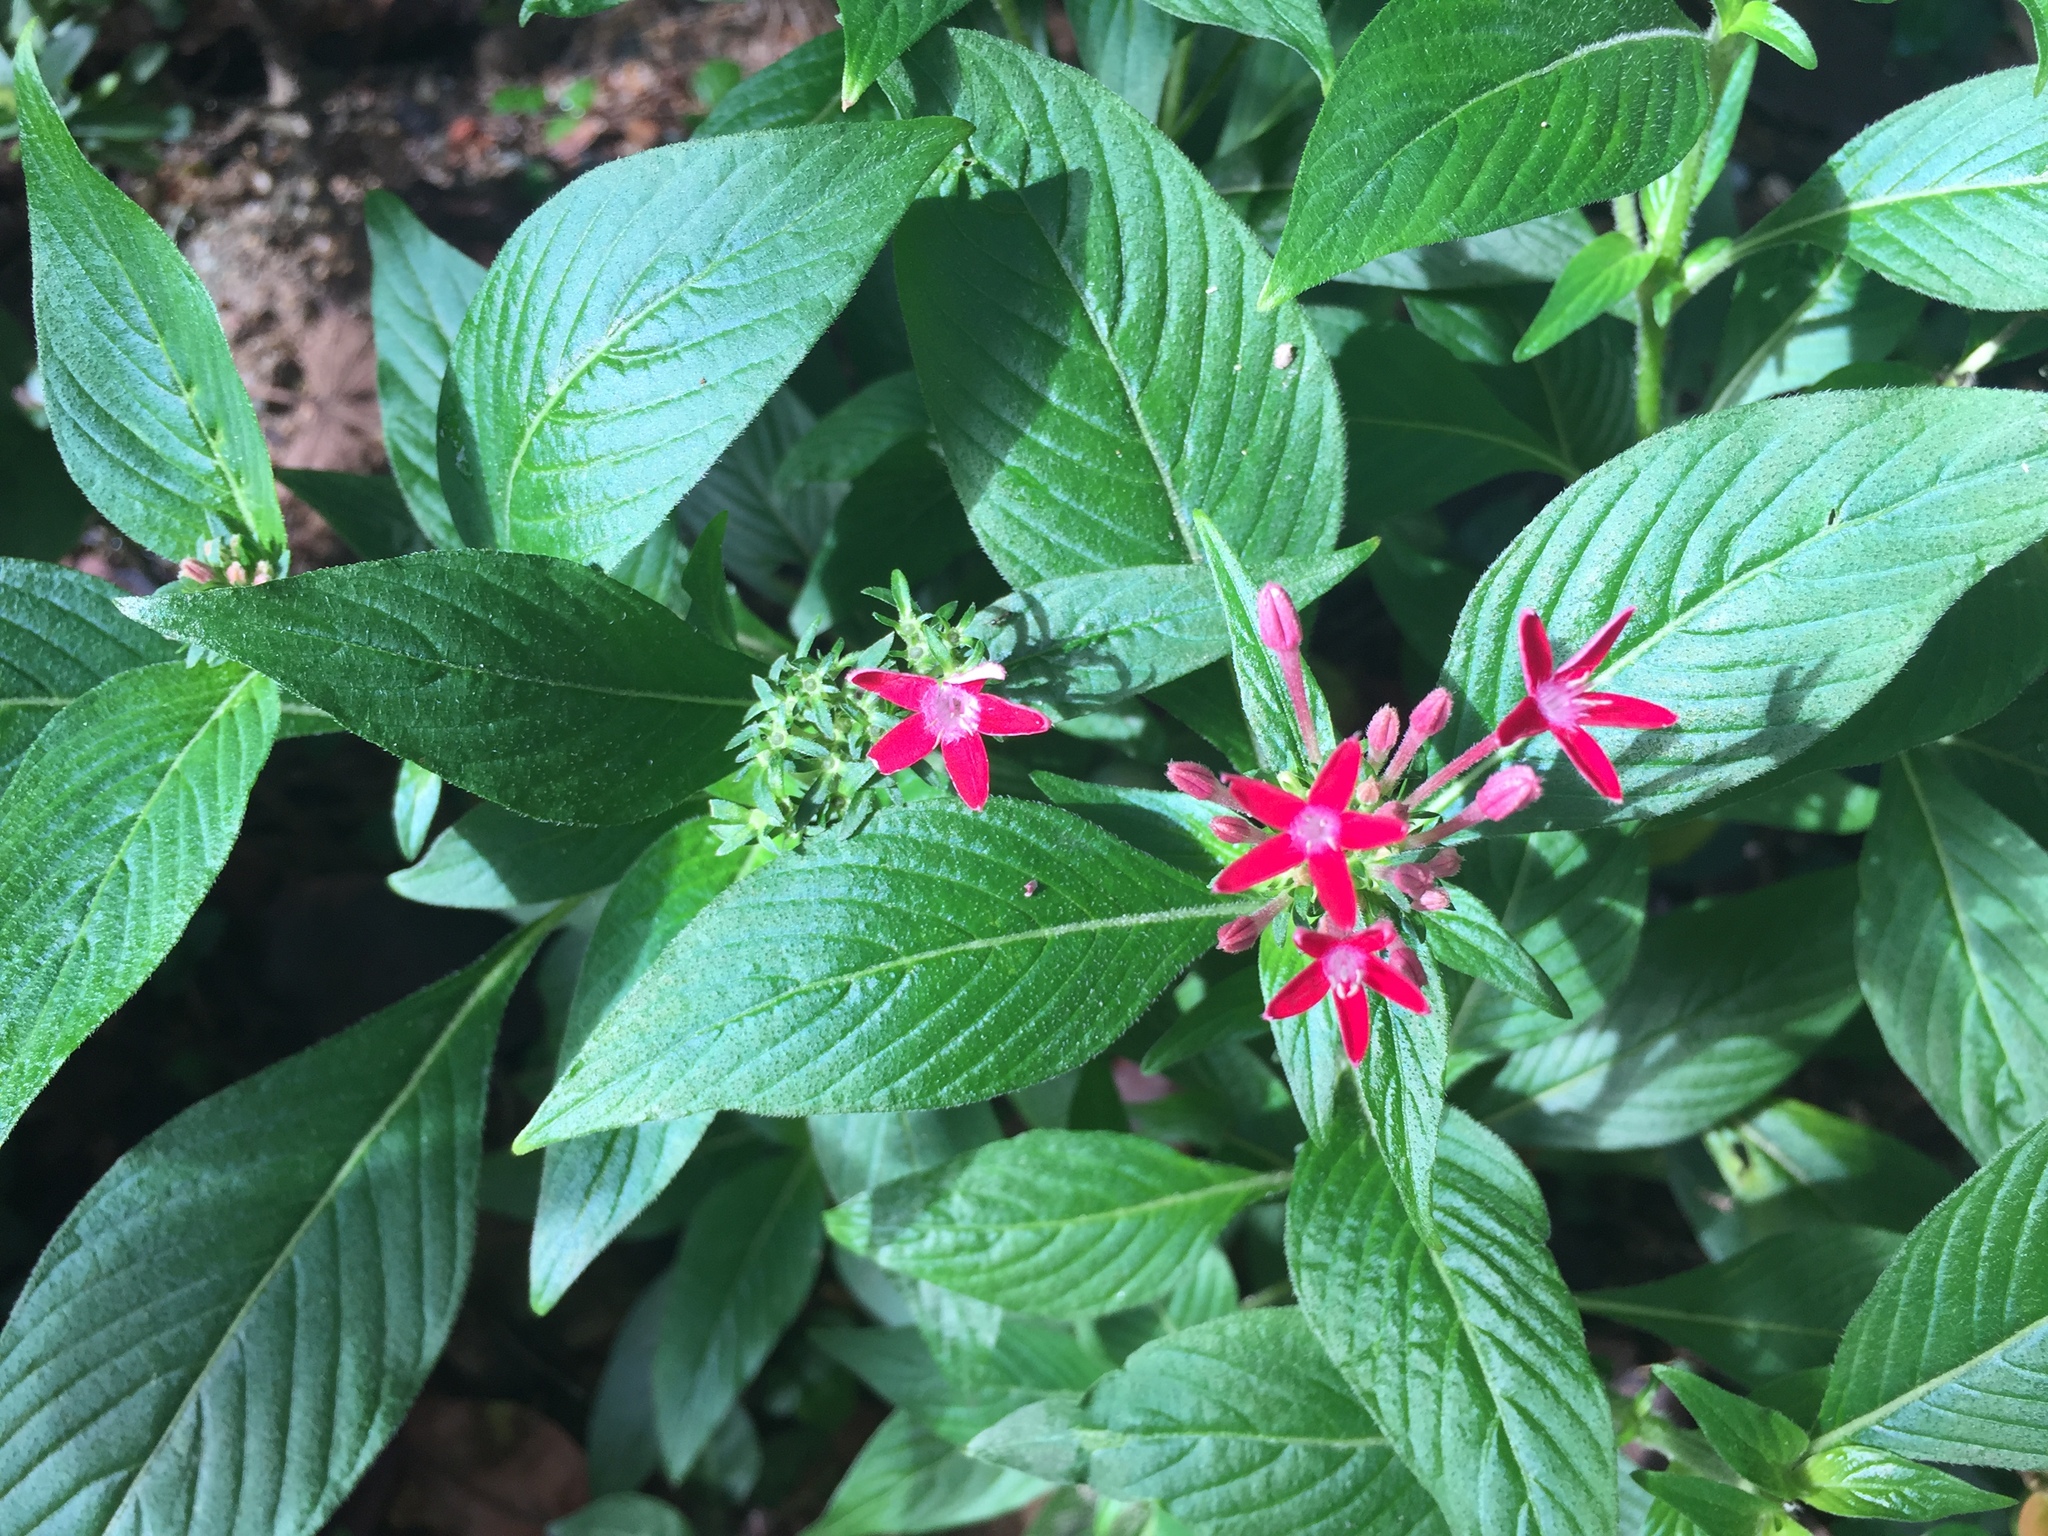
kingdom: Plantae
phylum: Tracheophyta
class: Magnoliopsida
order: Gentianales
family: Rubiaceae
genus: Pentas
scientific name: Pentas lanceolata
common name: Egyptian starcluster
